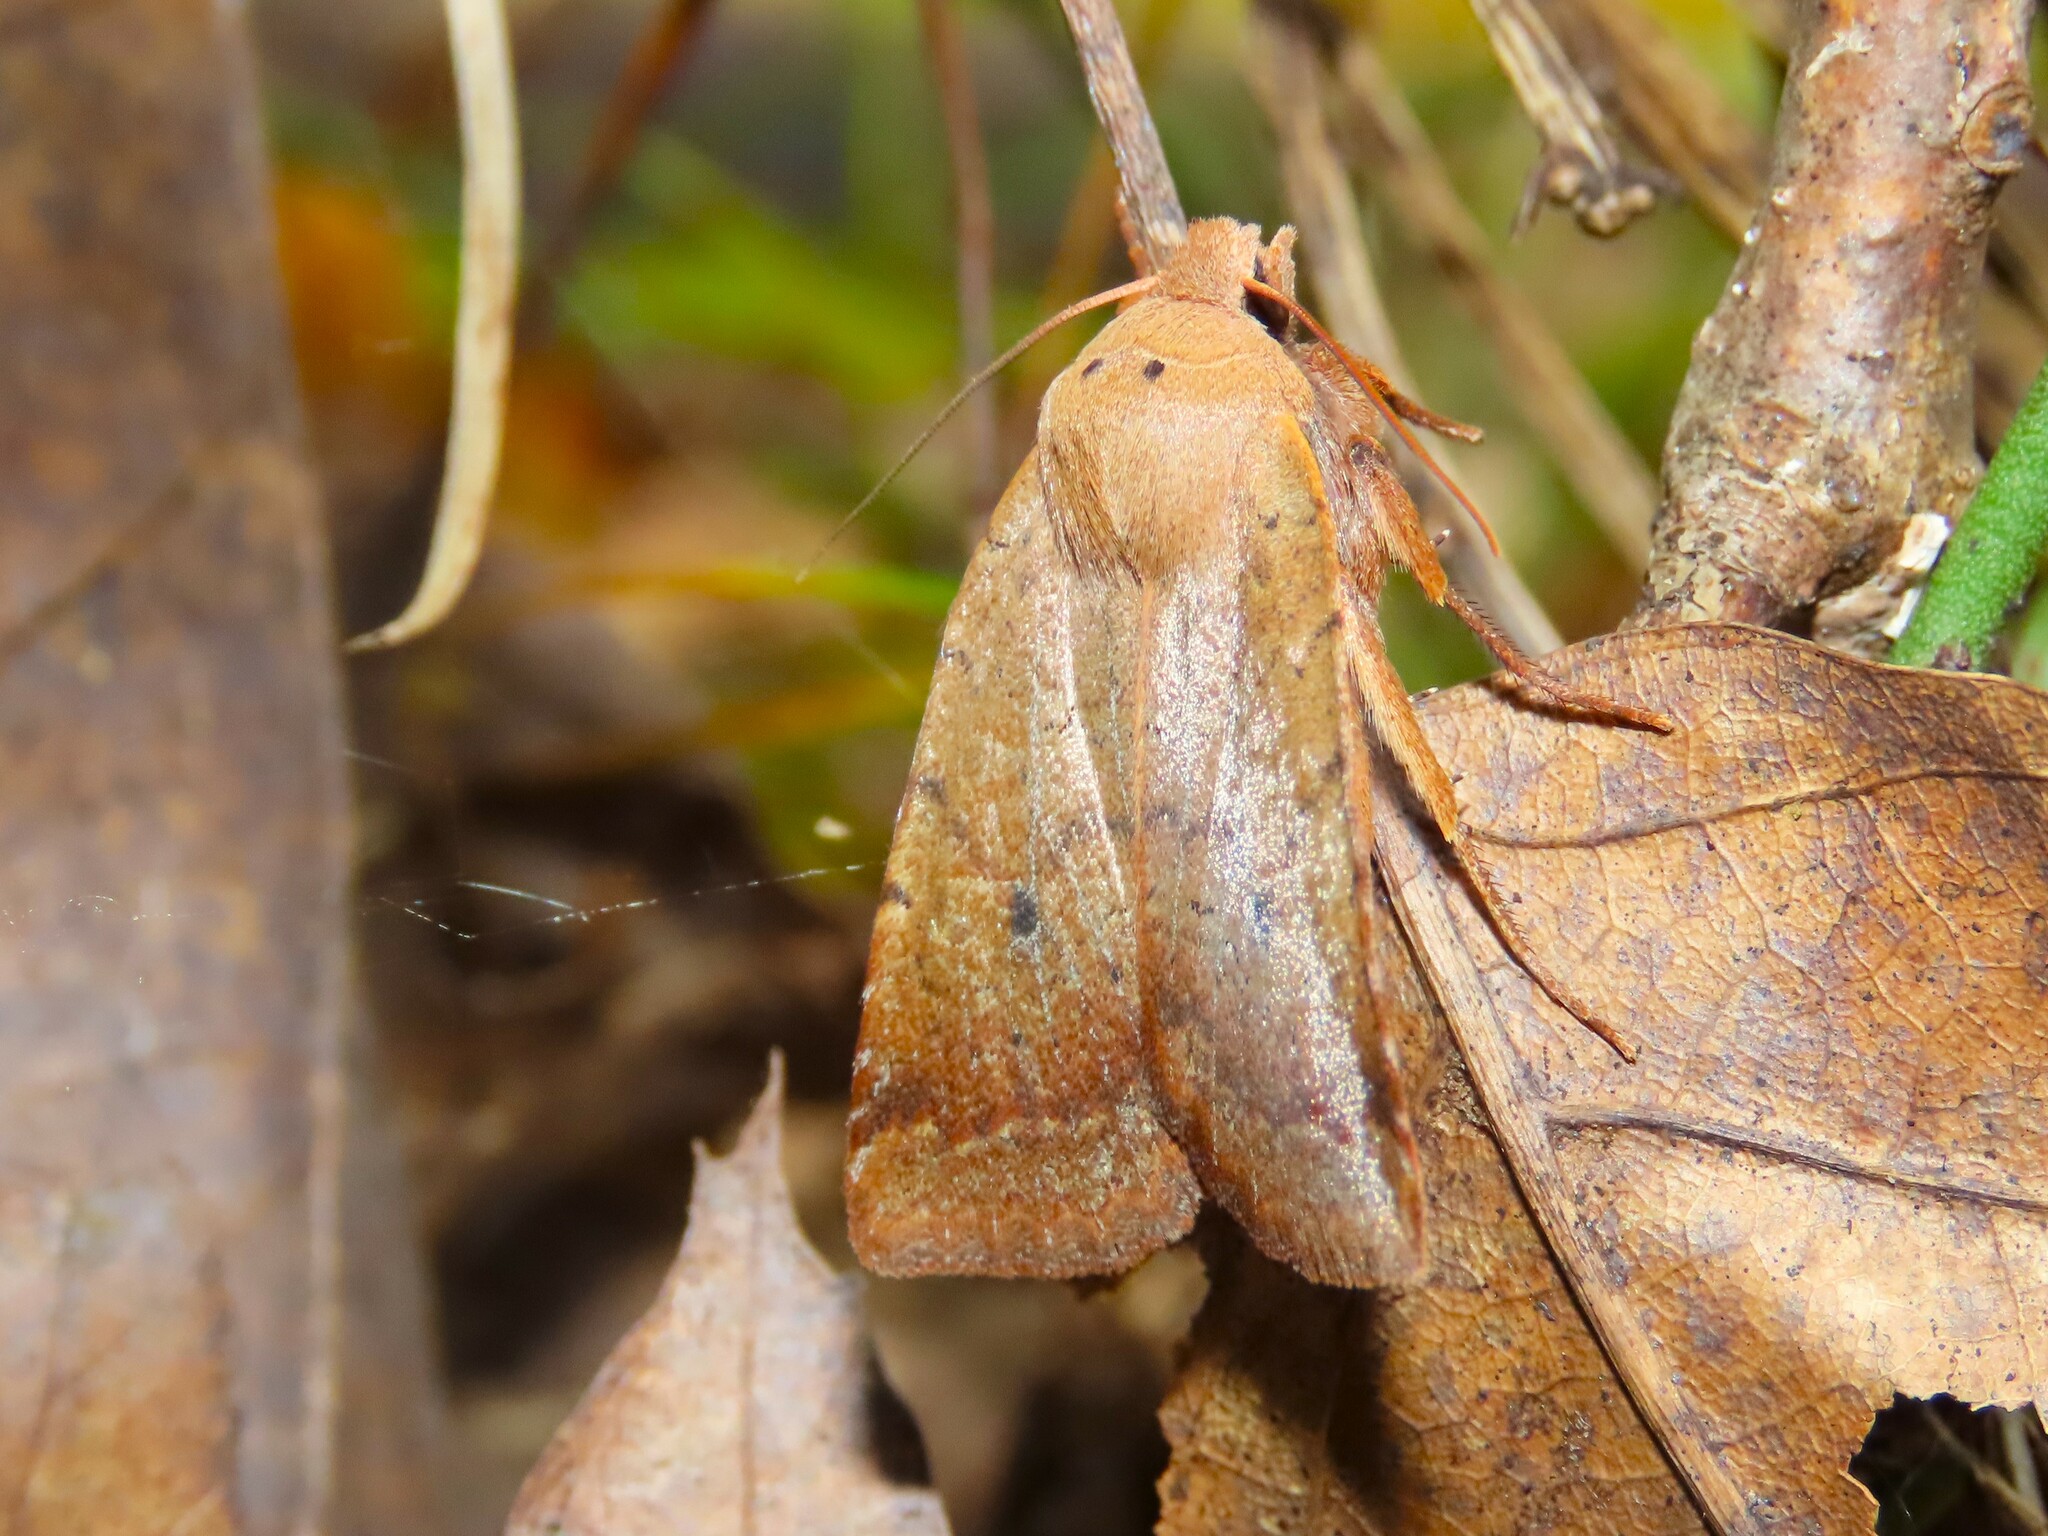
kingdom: Animalia
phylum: Arthropoda
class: Insecta
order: Lepidoptera
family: Noctuidae
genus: Sericaglaea
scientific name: Sericaglaea signata
